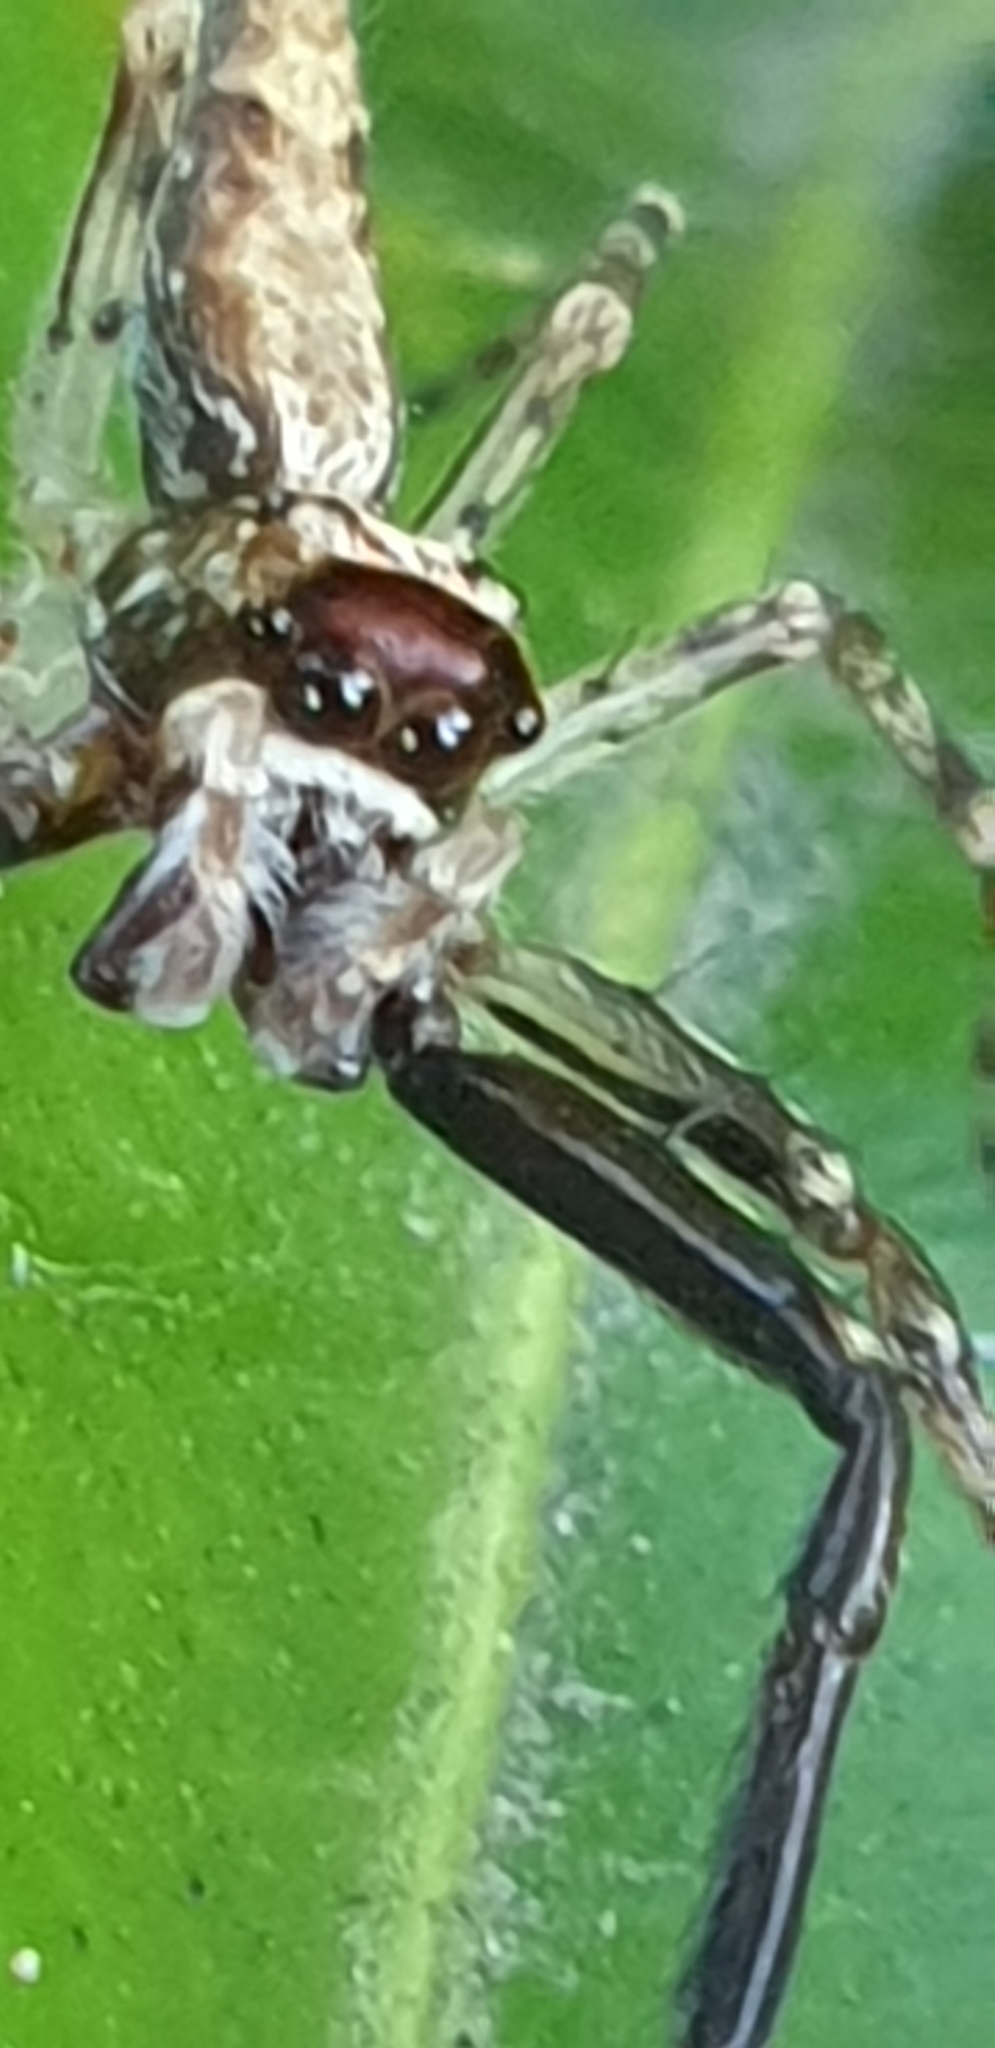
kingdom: Animalia
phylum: Arthropoda
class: Arachnida
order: Araneae
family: Salticidae
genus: Helpis
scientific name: Helpis minitabunda
